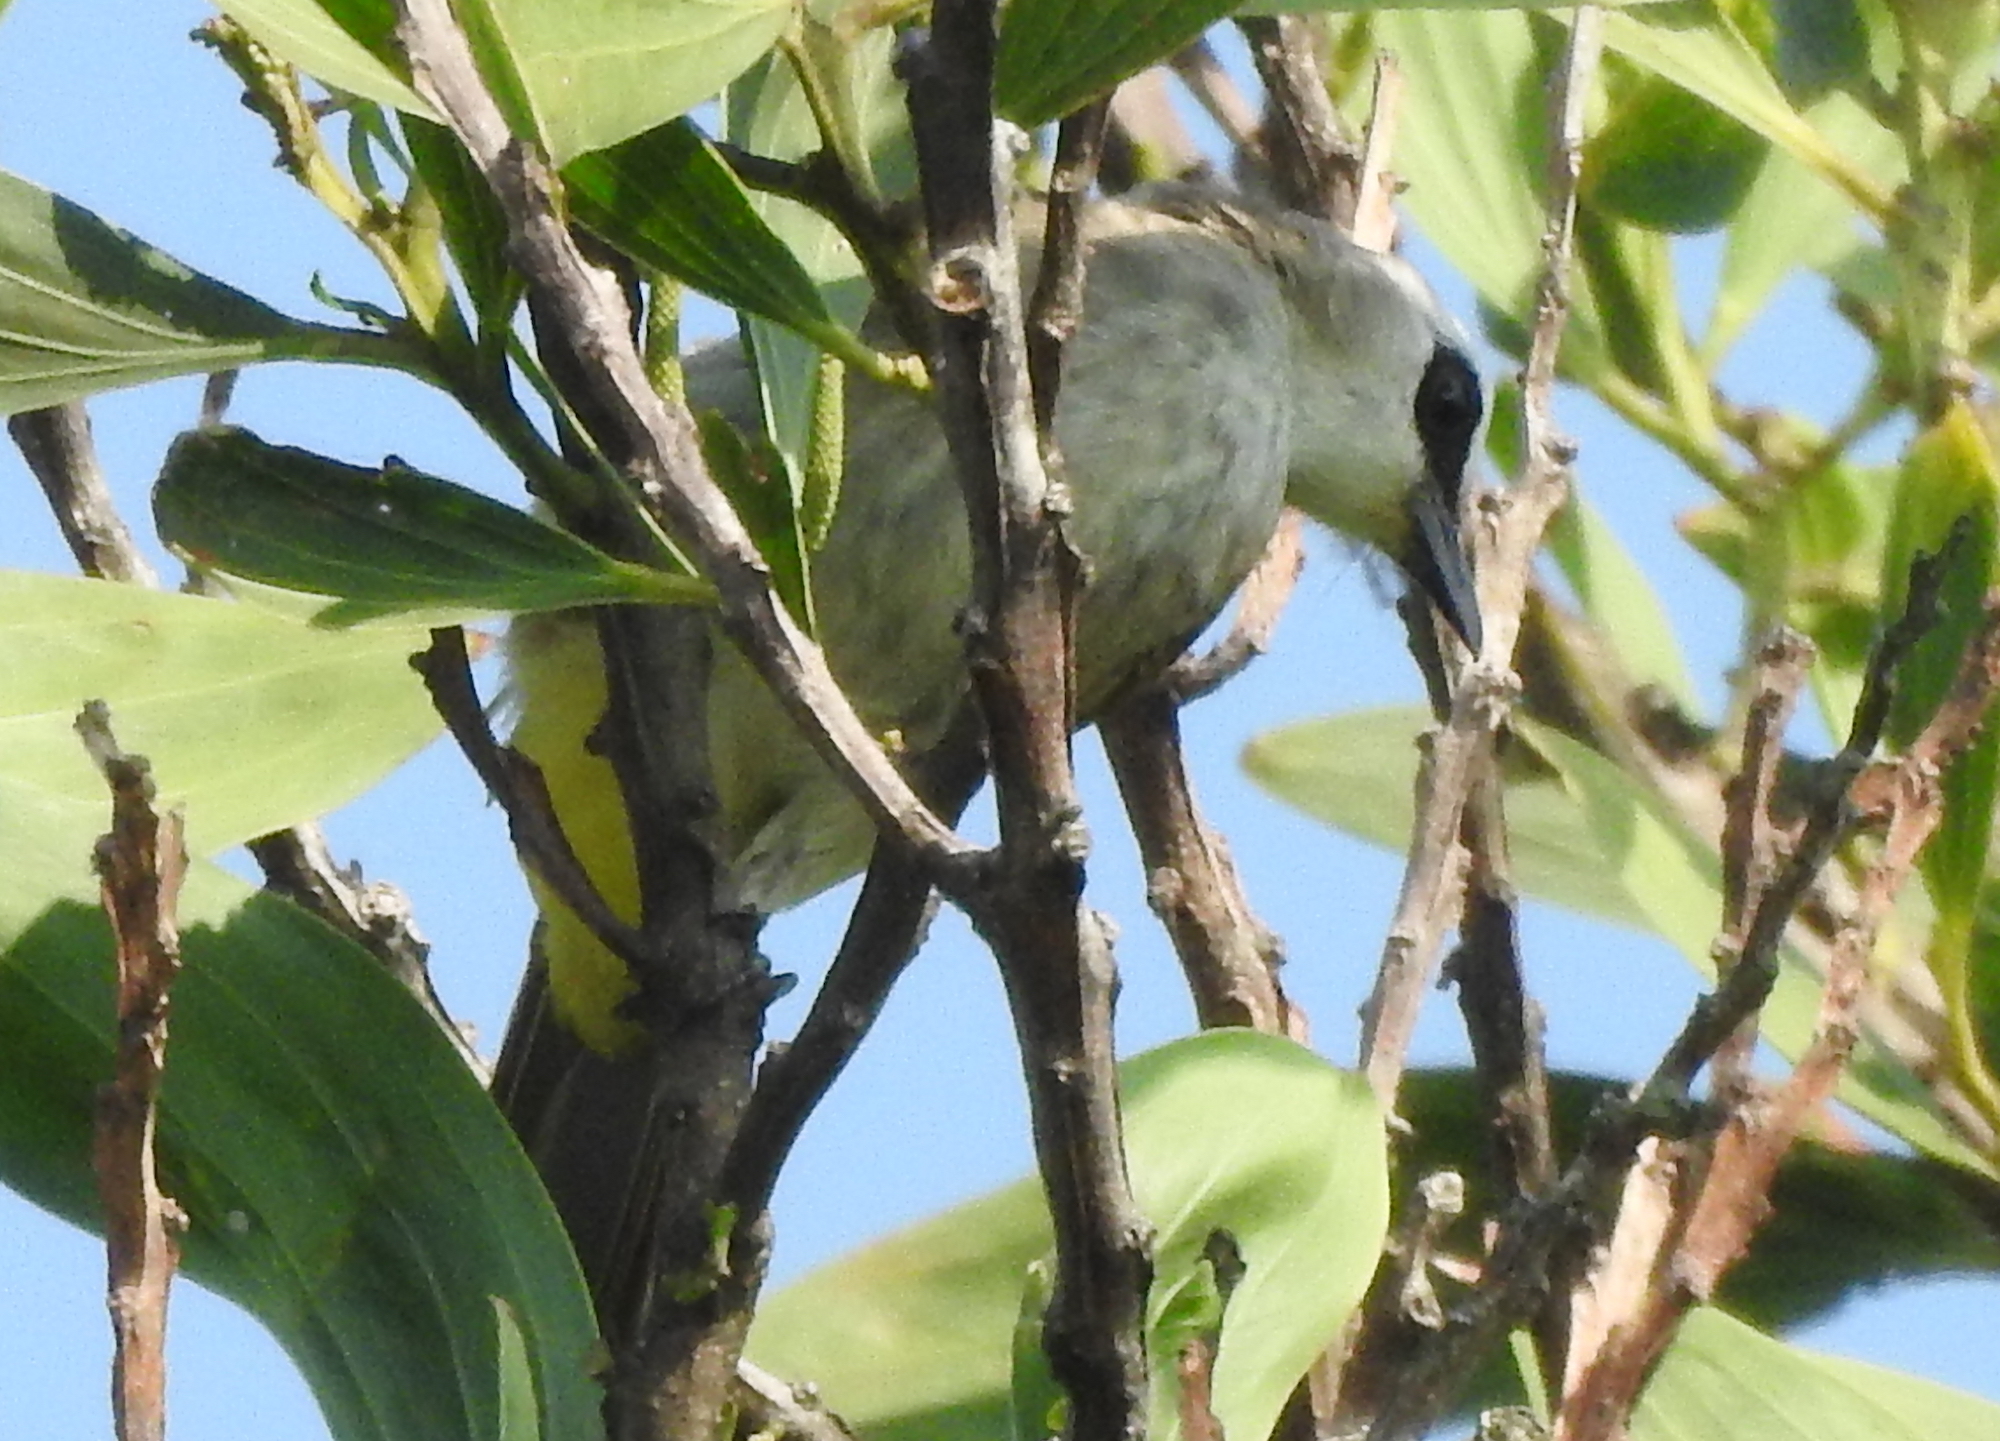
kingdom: Animalia
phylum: Chordata
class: Aves
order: Passeriformes
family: Pycnonotidae
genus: Pycnonotus
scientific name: Pycnonotus goiavier
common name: Yellow-vented bulbul
